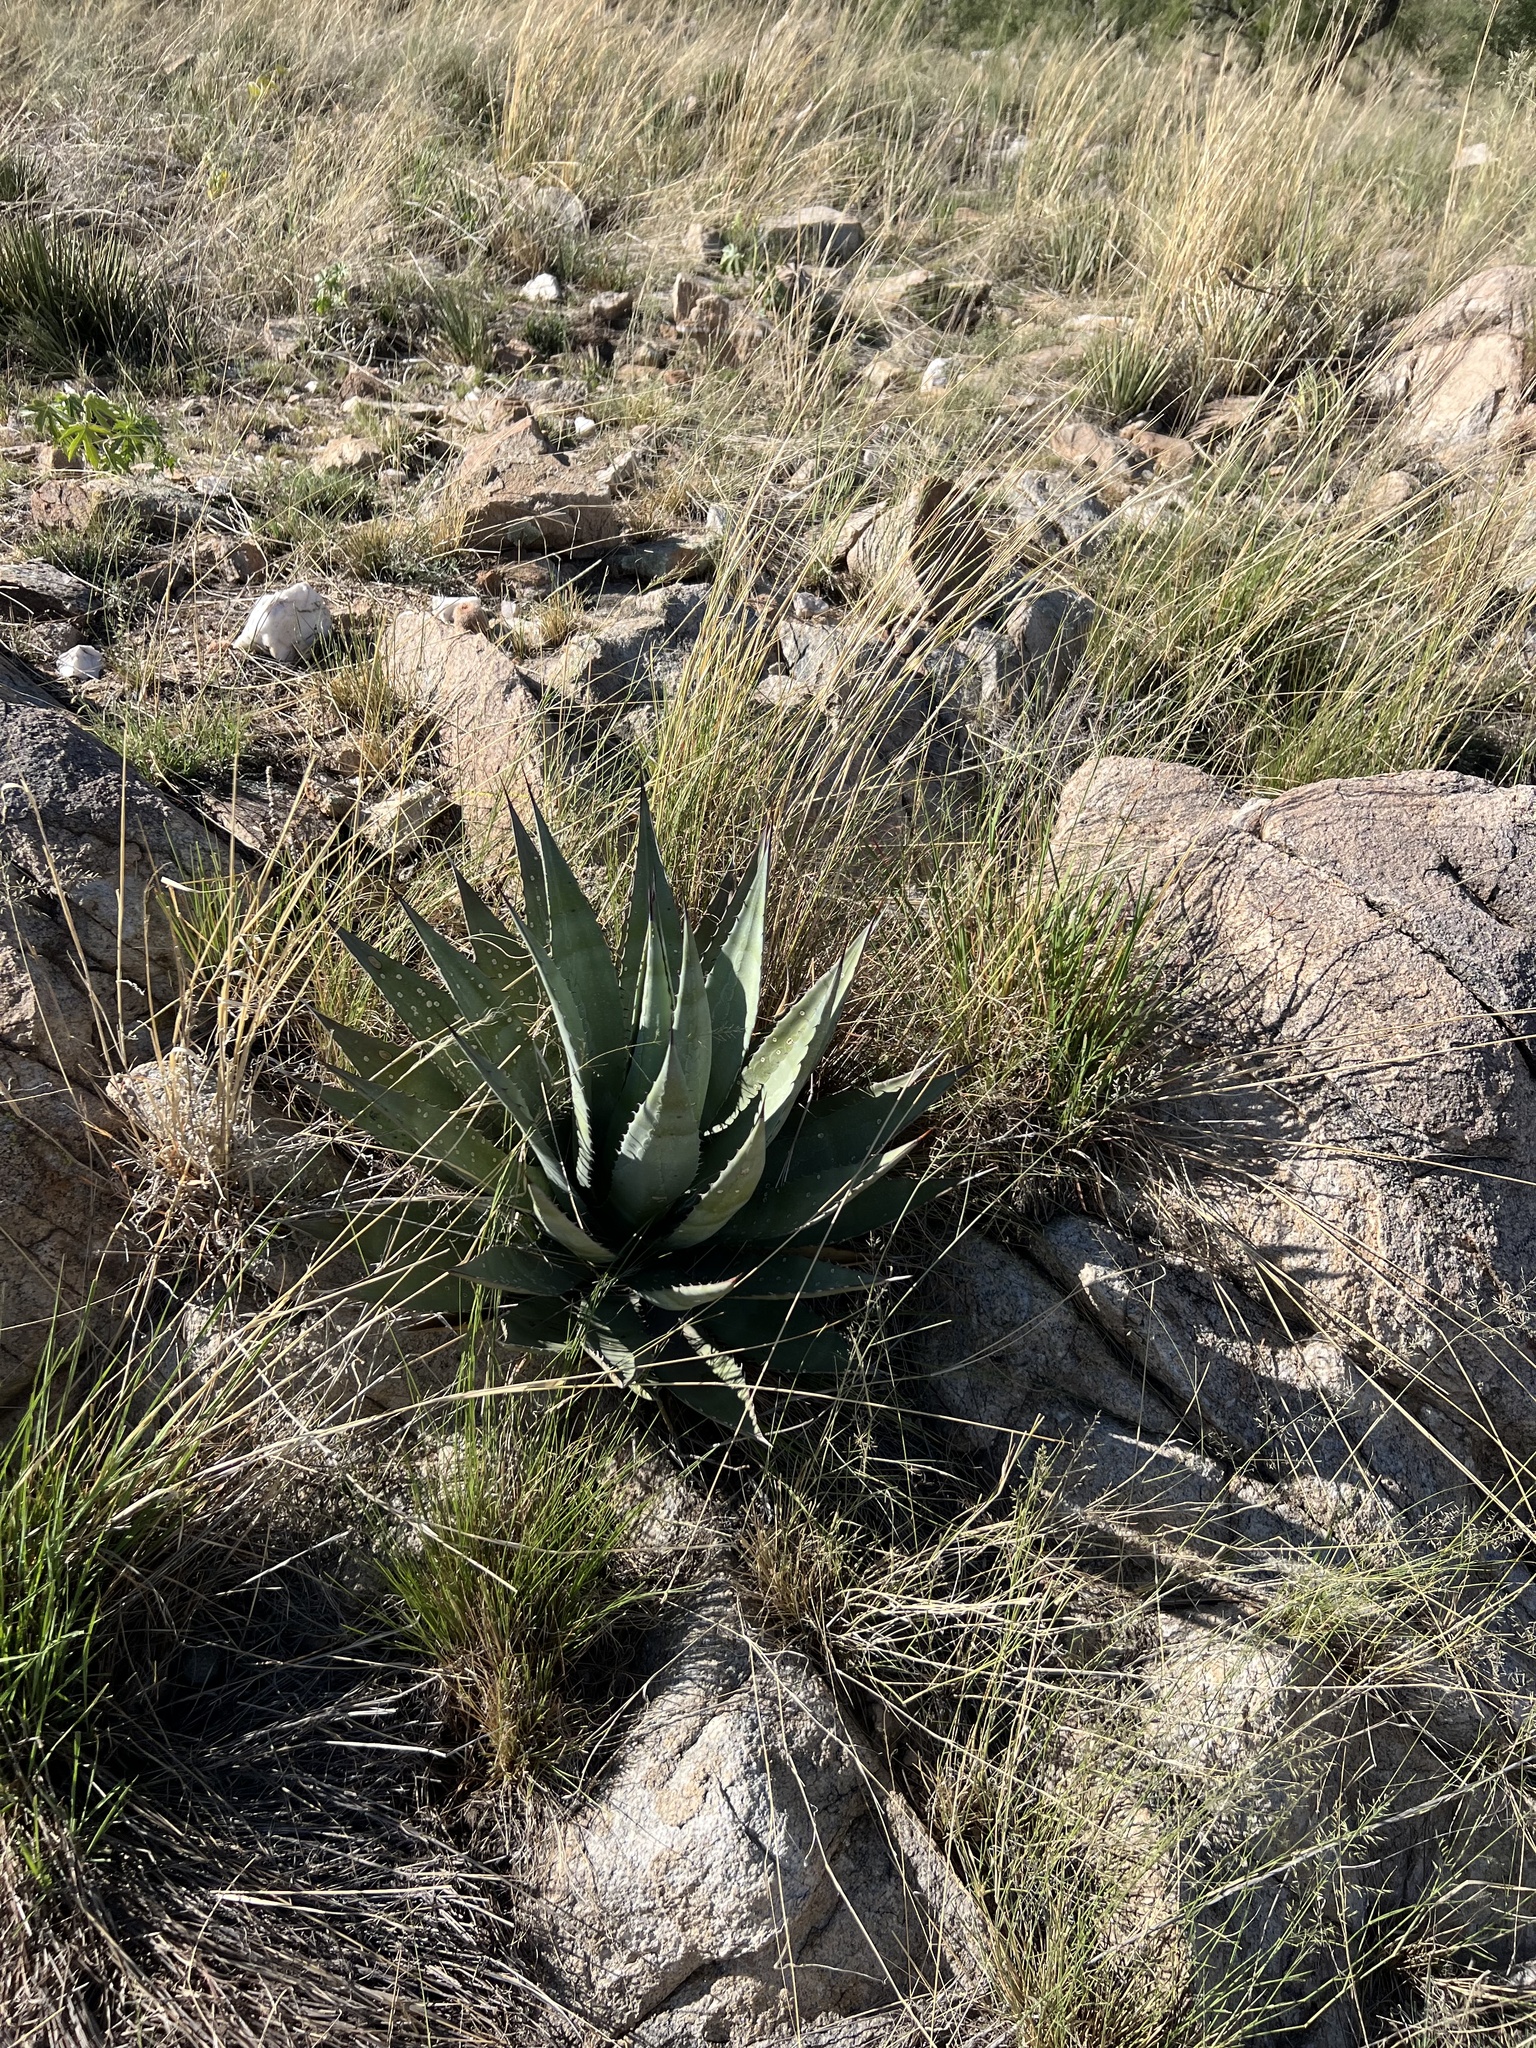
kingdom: Plantae
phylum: Tracheophyta
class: Liliopsida
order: Asparagales
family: Asparagaceae
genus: Agave
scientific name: Agave palmeri
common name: Palmer agave
